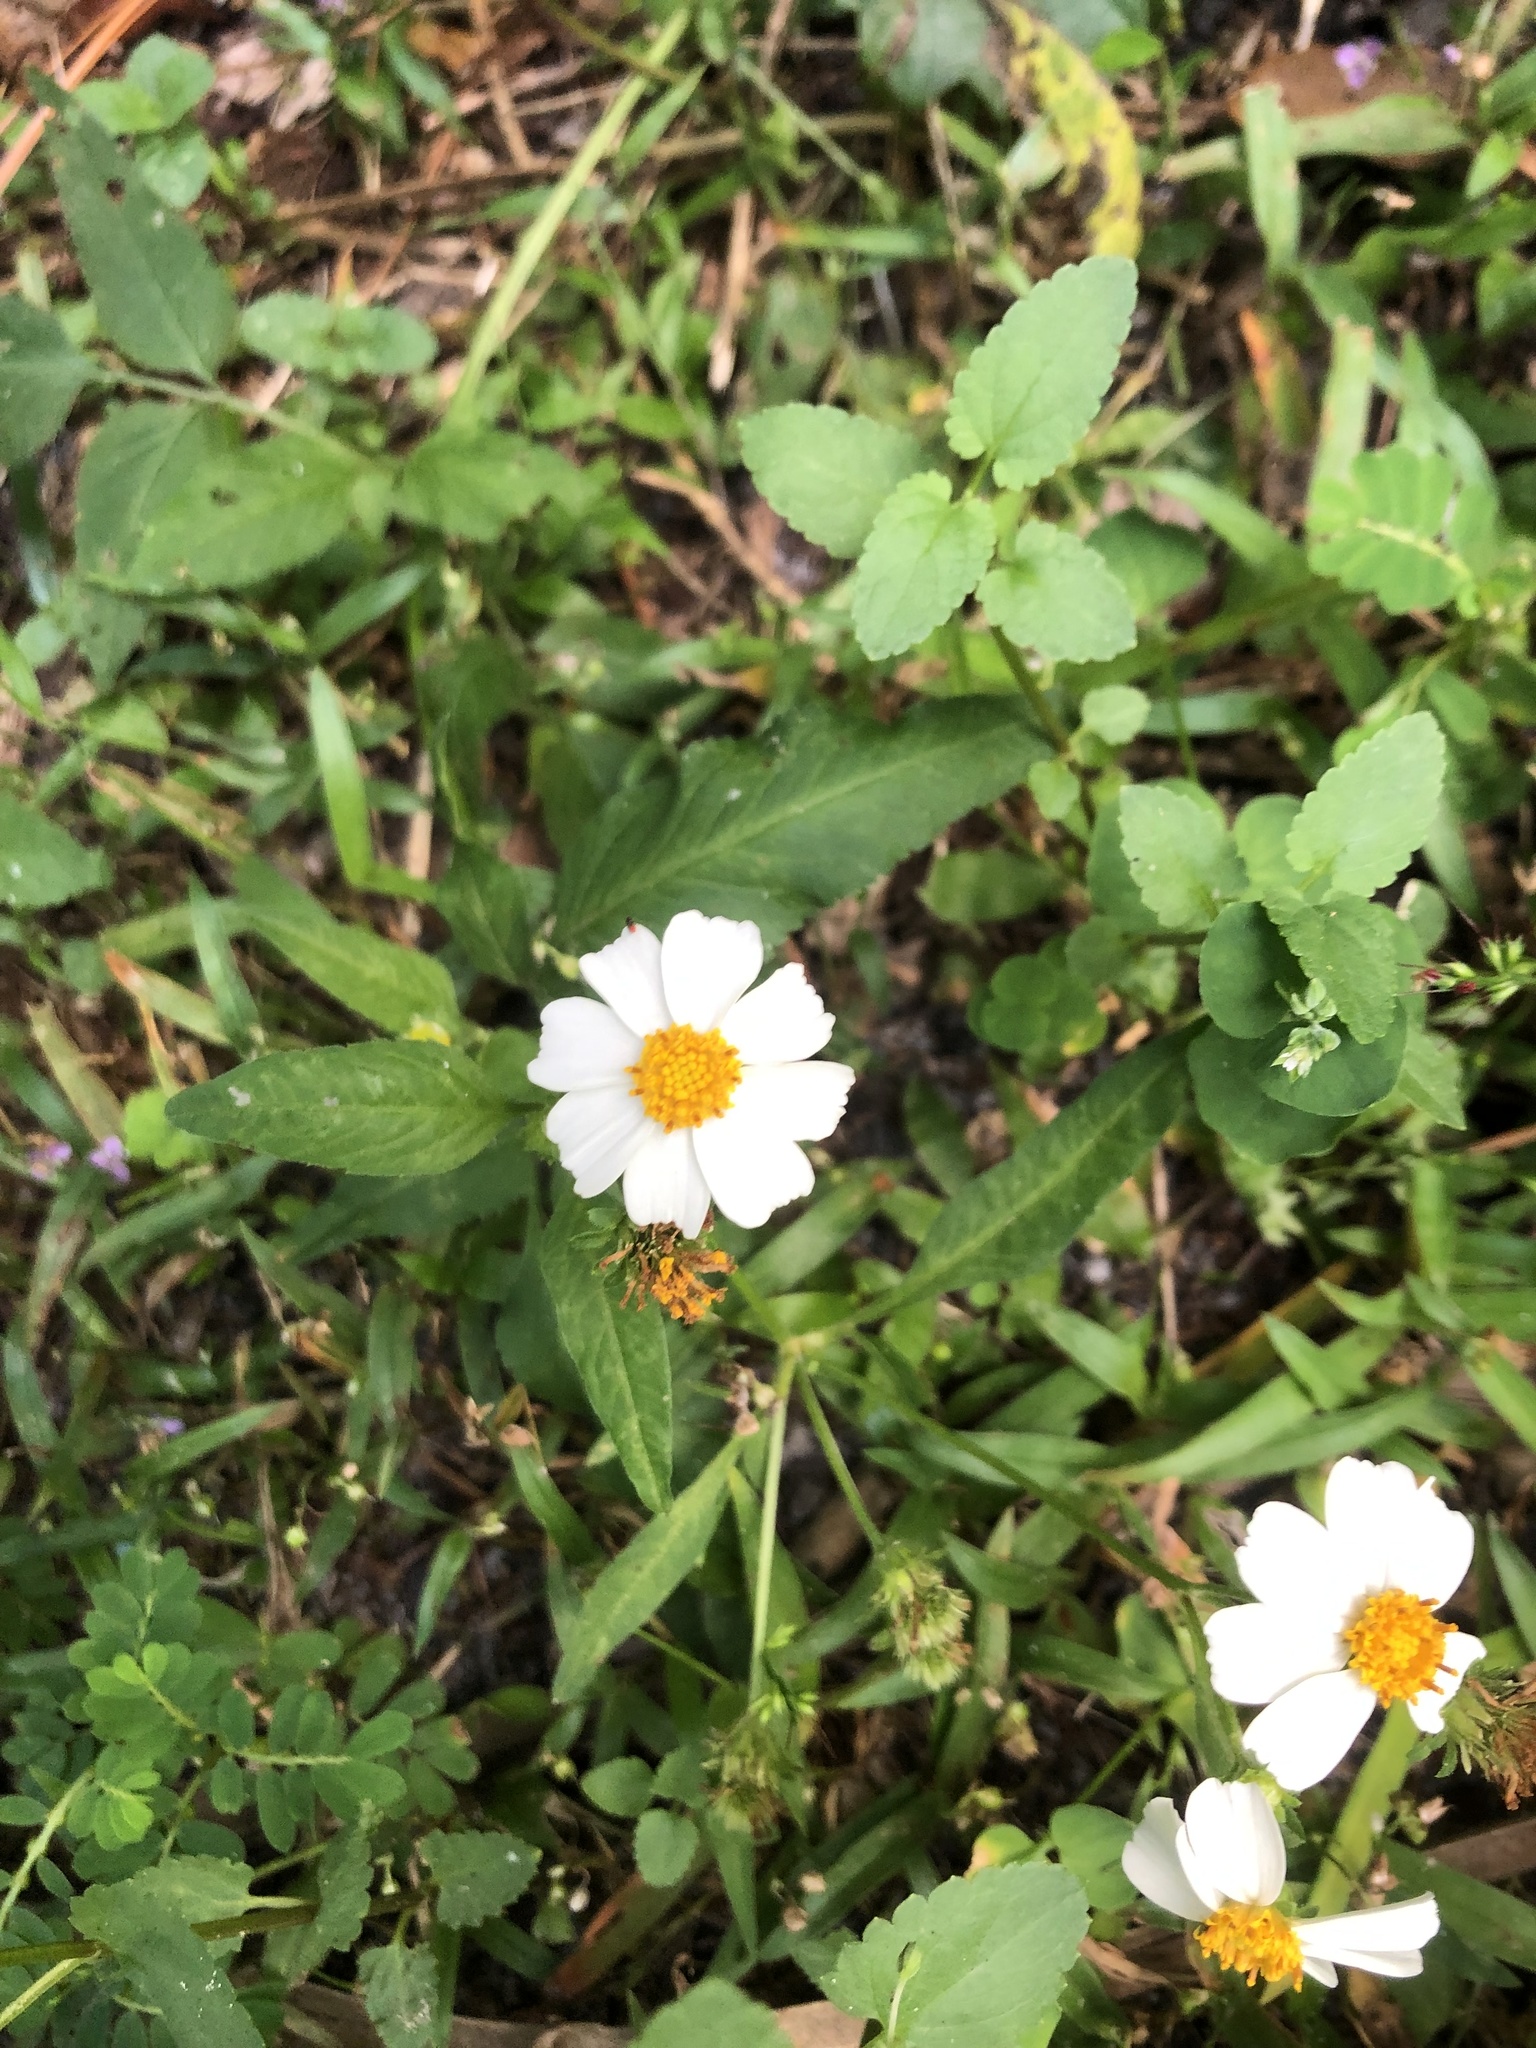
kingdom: Plantae
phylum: Tracheophyta
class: Magnoliopsida
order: Asterales
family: Asteraceae
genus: Bidens
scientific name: Bidens alba
